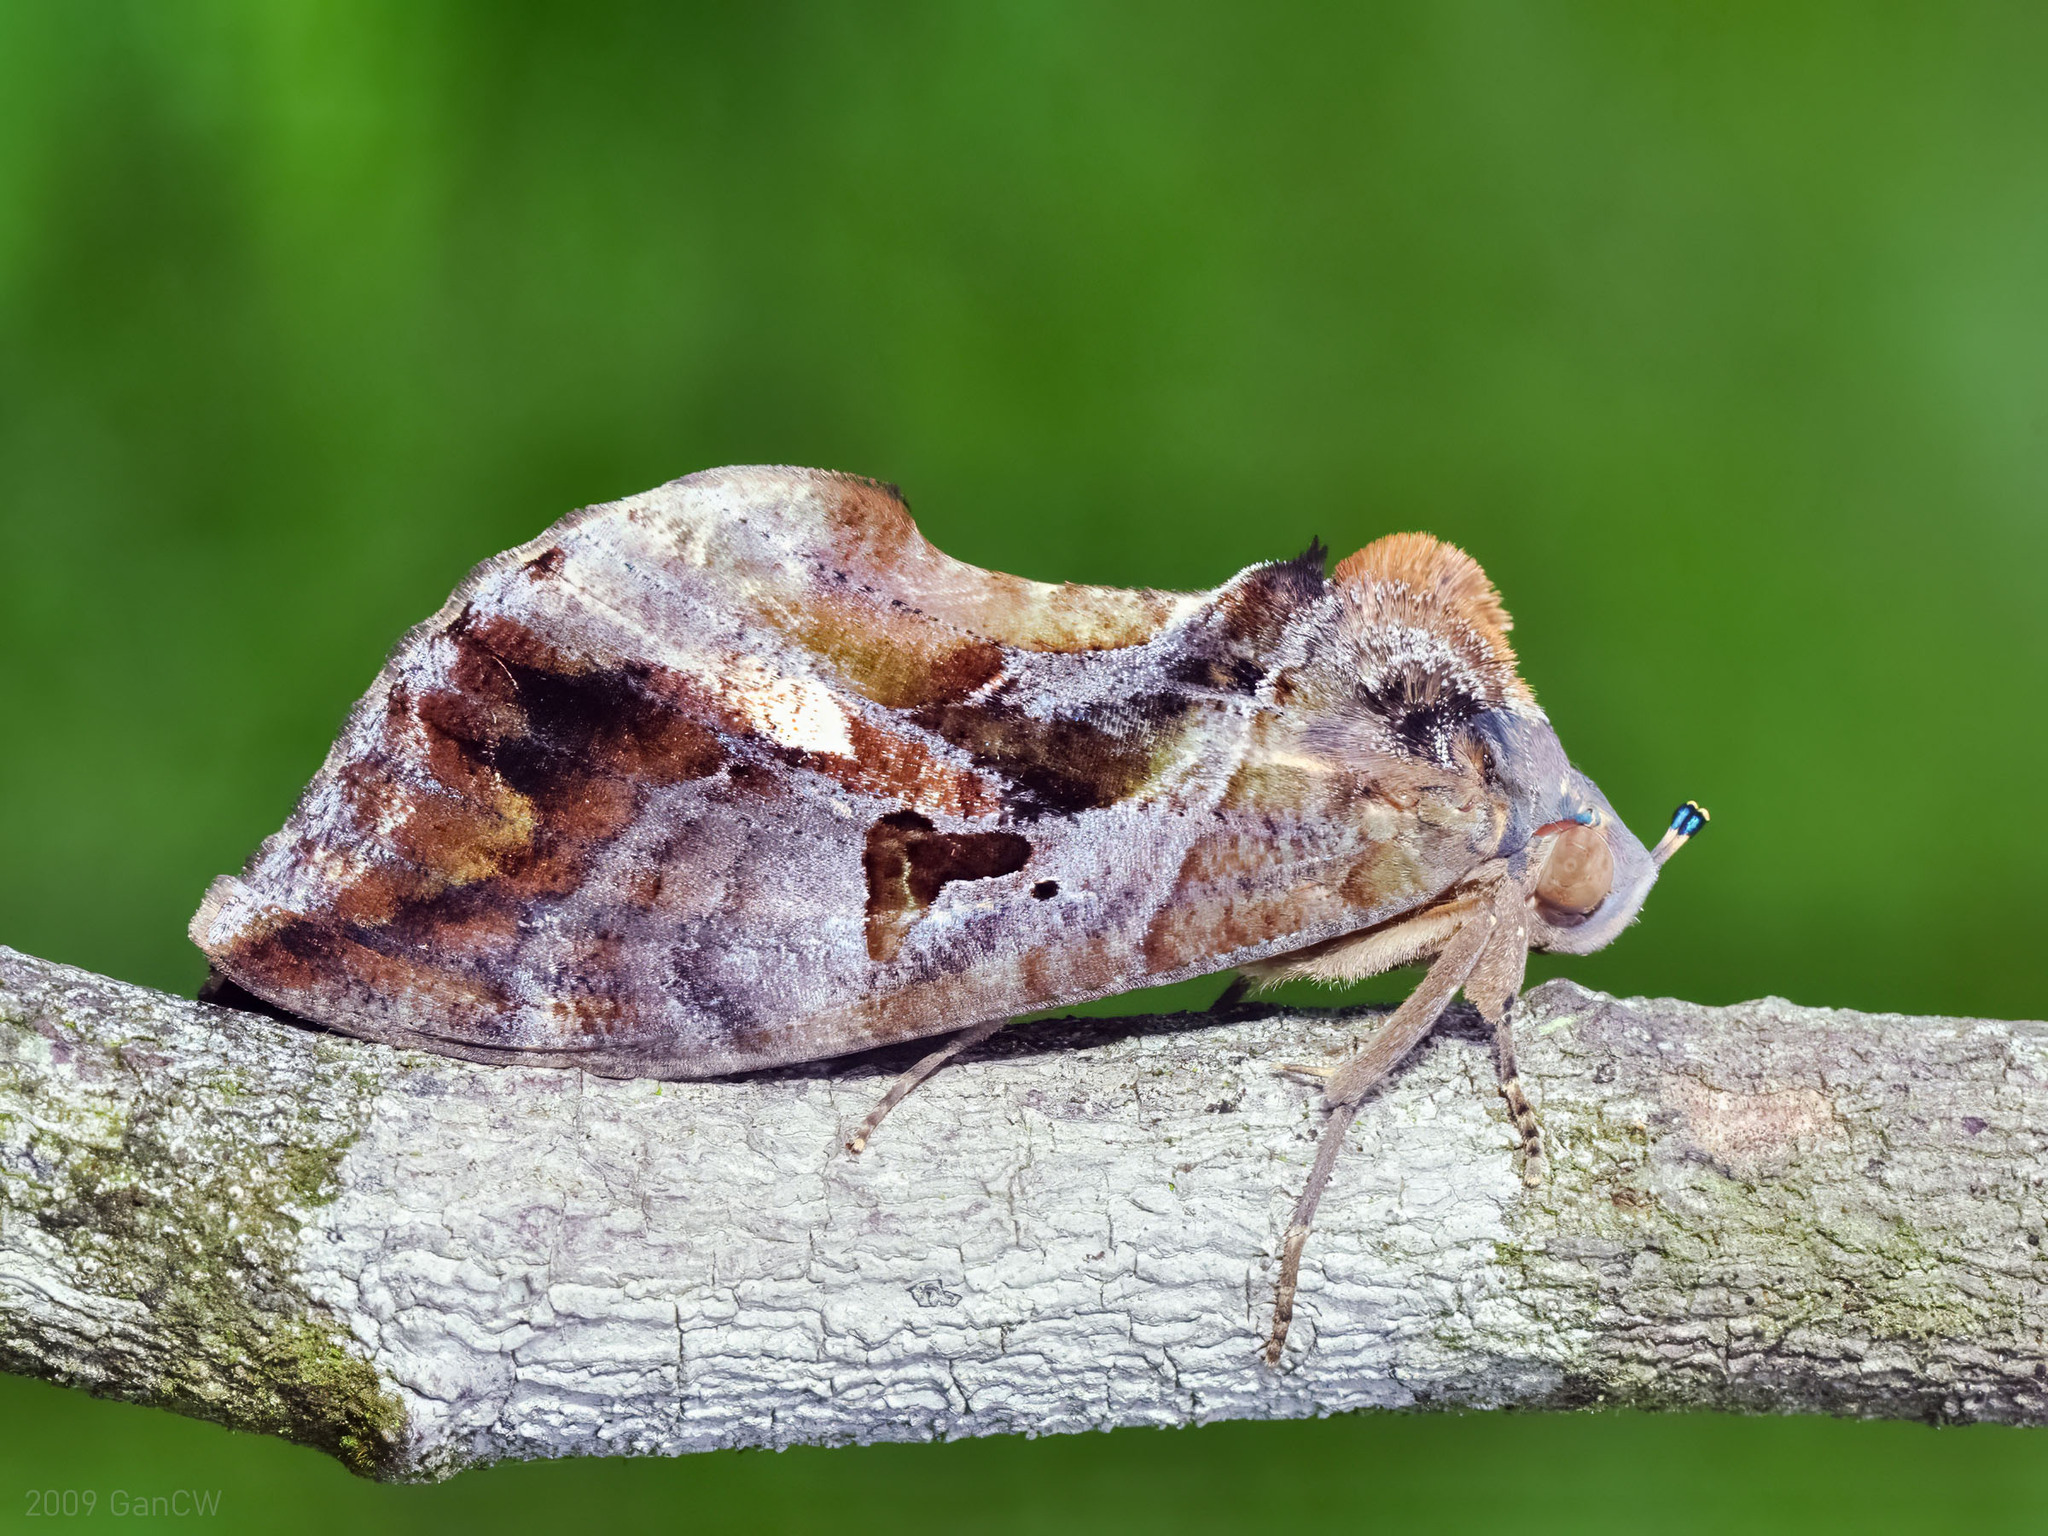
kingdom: Animalia
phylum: Arthropoda
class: Insecta
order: Lepidoptera
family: Erebidae
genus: Eudocima
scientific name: Eudocima phalonia
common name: Wasp
